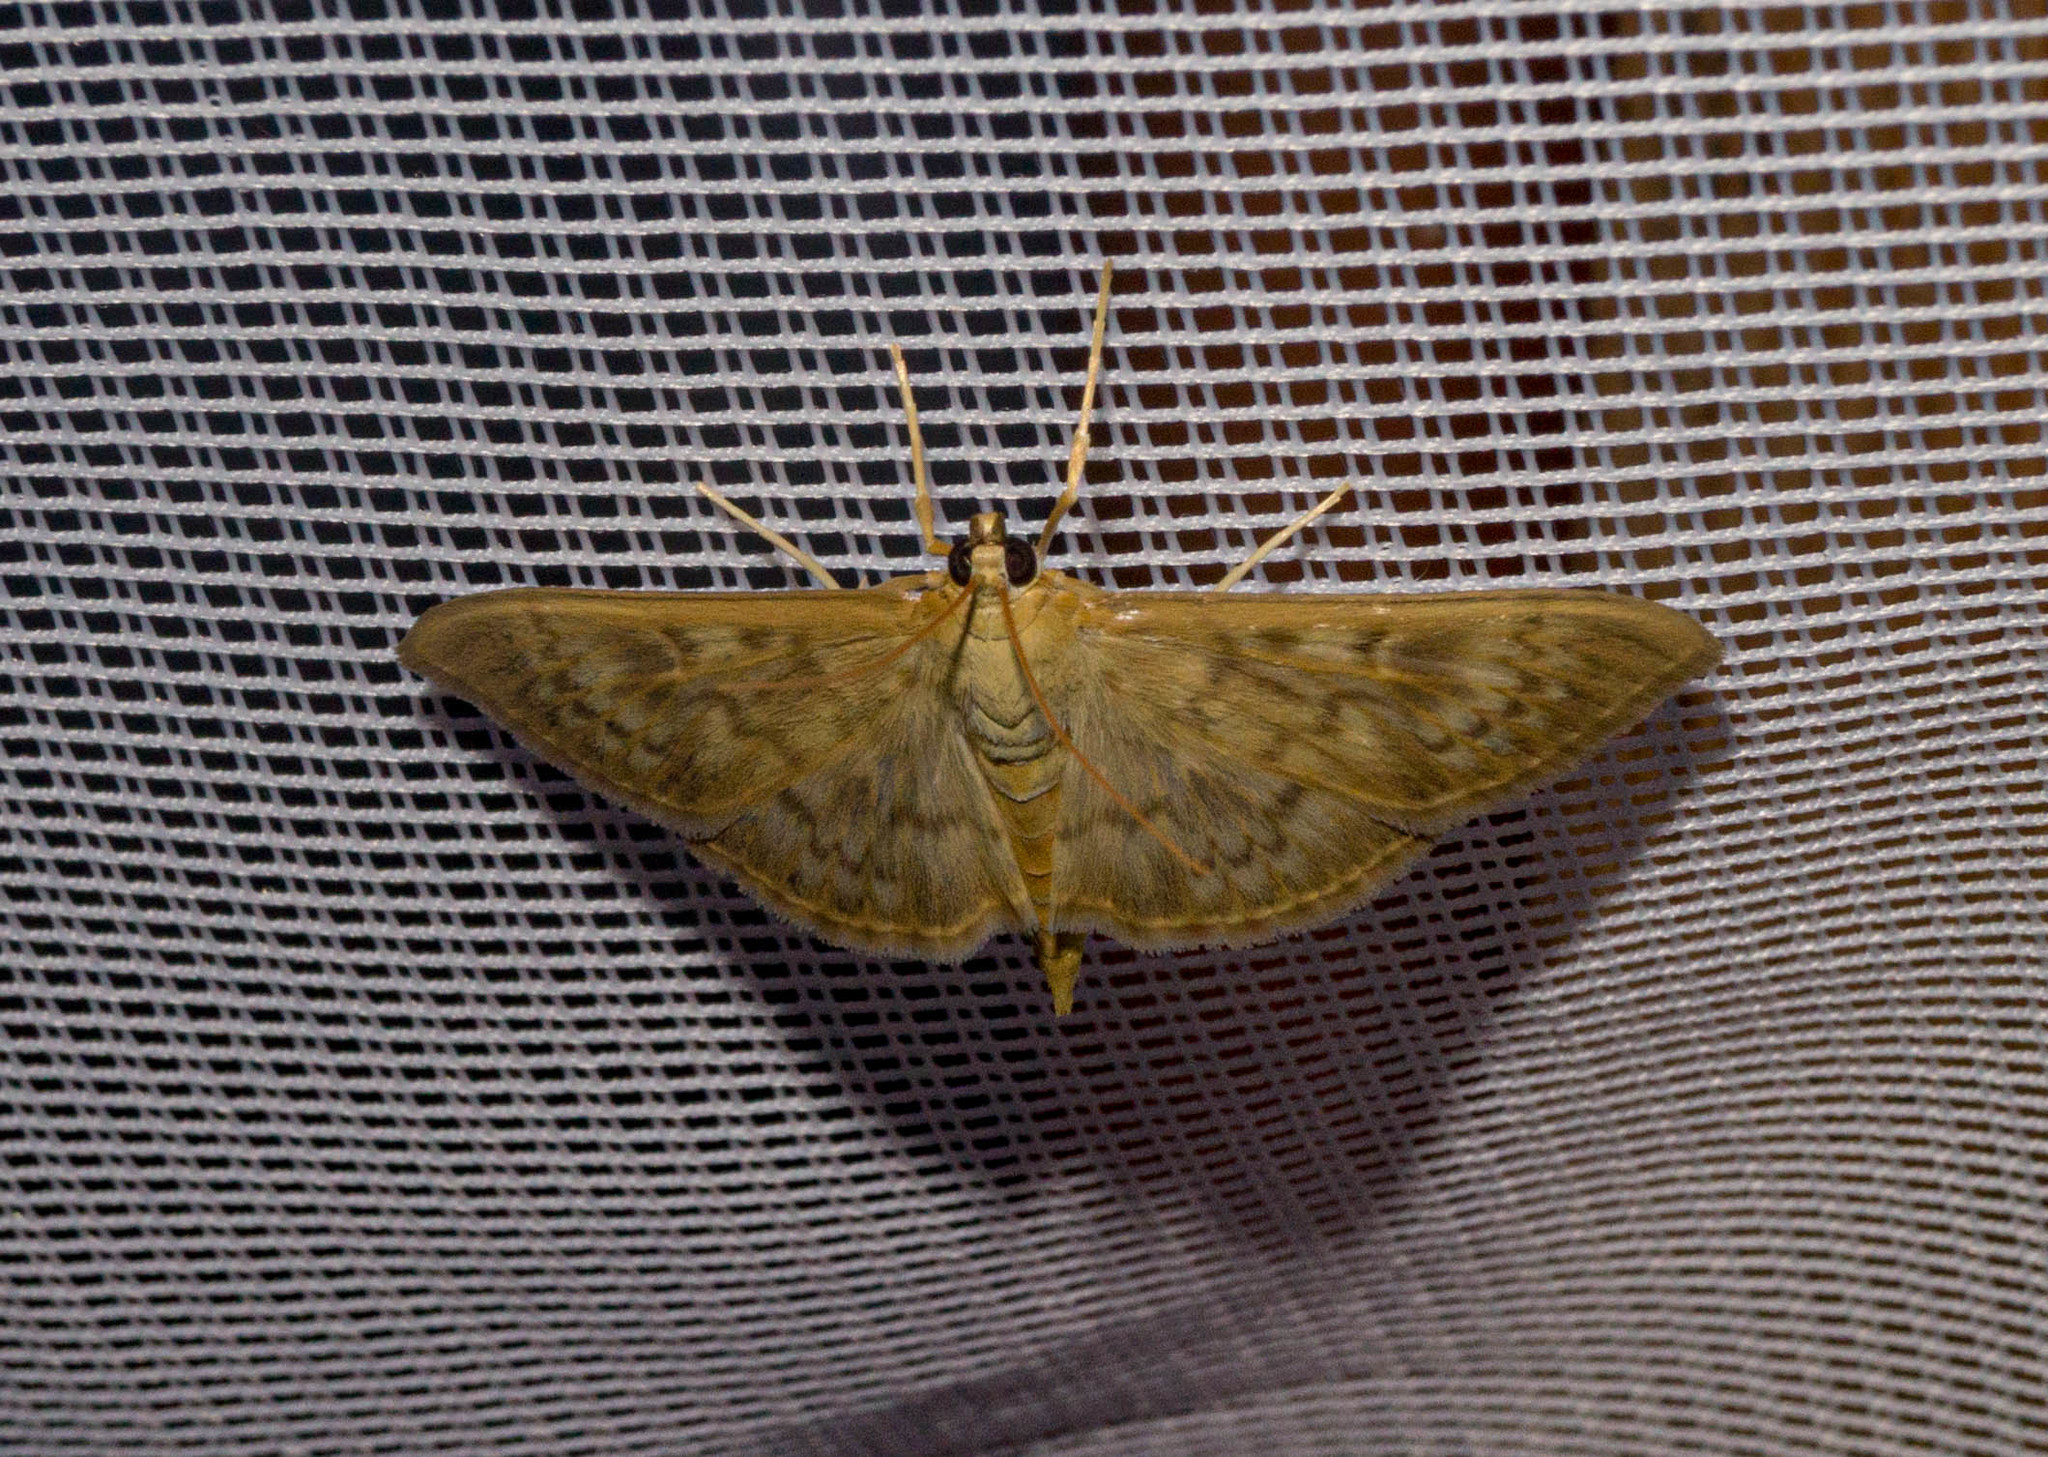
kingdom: Animalia
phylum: Arthropoda
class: Insecta
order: Lepidoptera
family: Crambidae
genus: Patania
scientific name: Patania ruralis
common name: Mother of pearl
